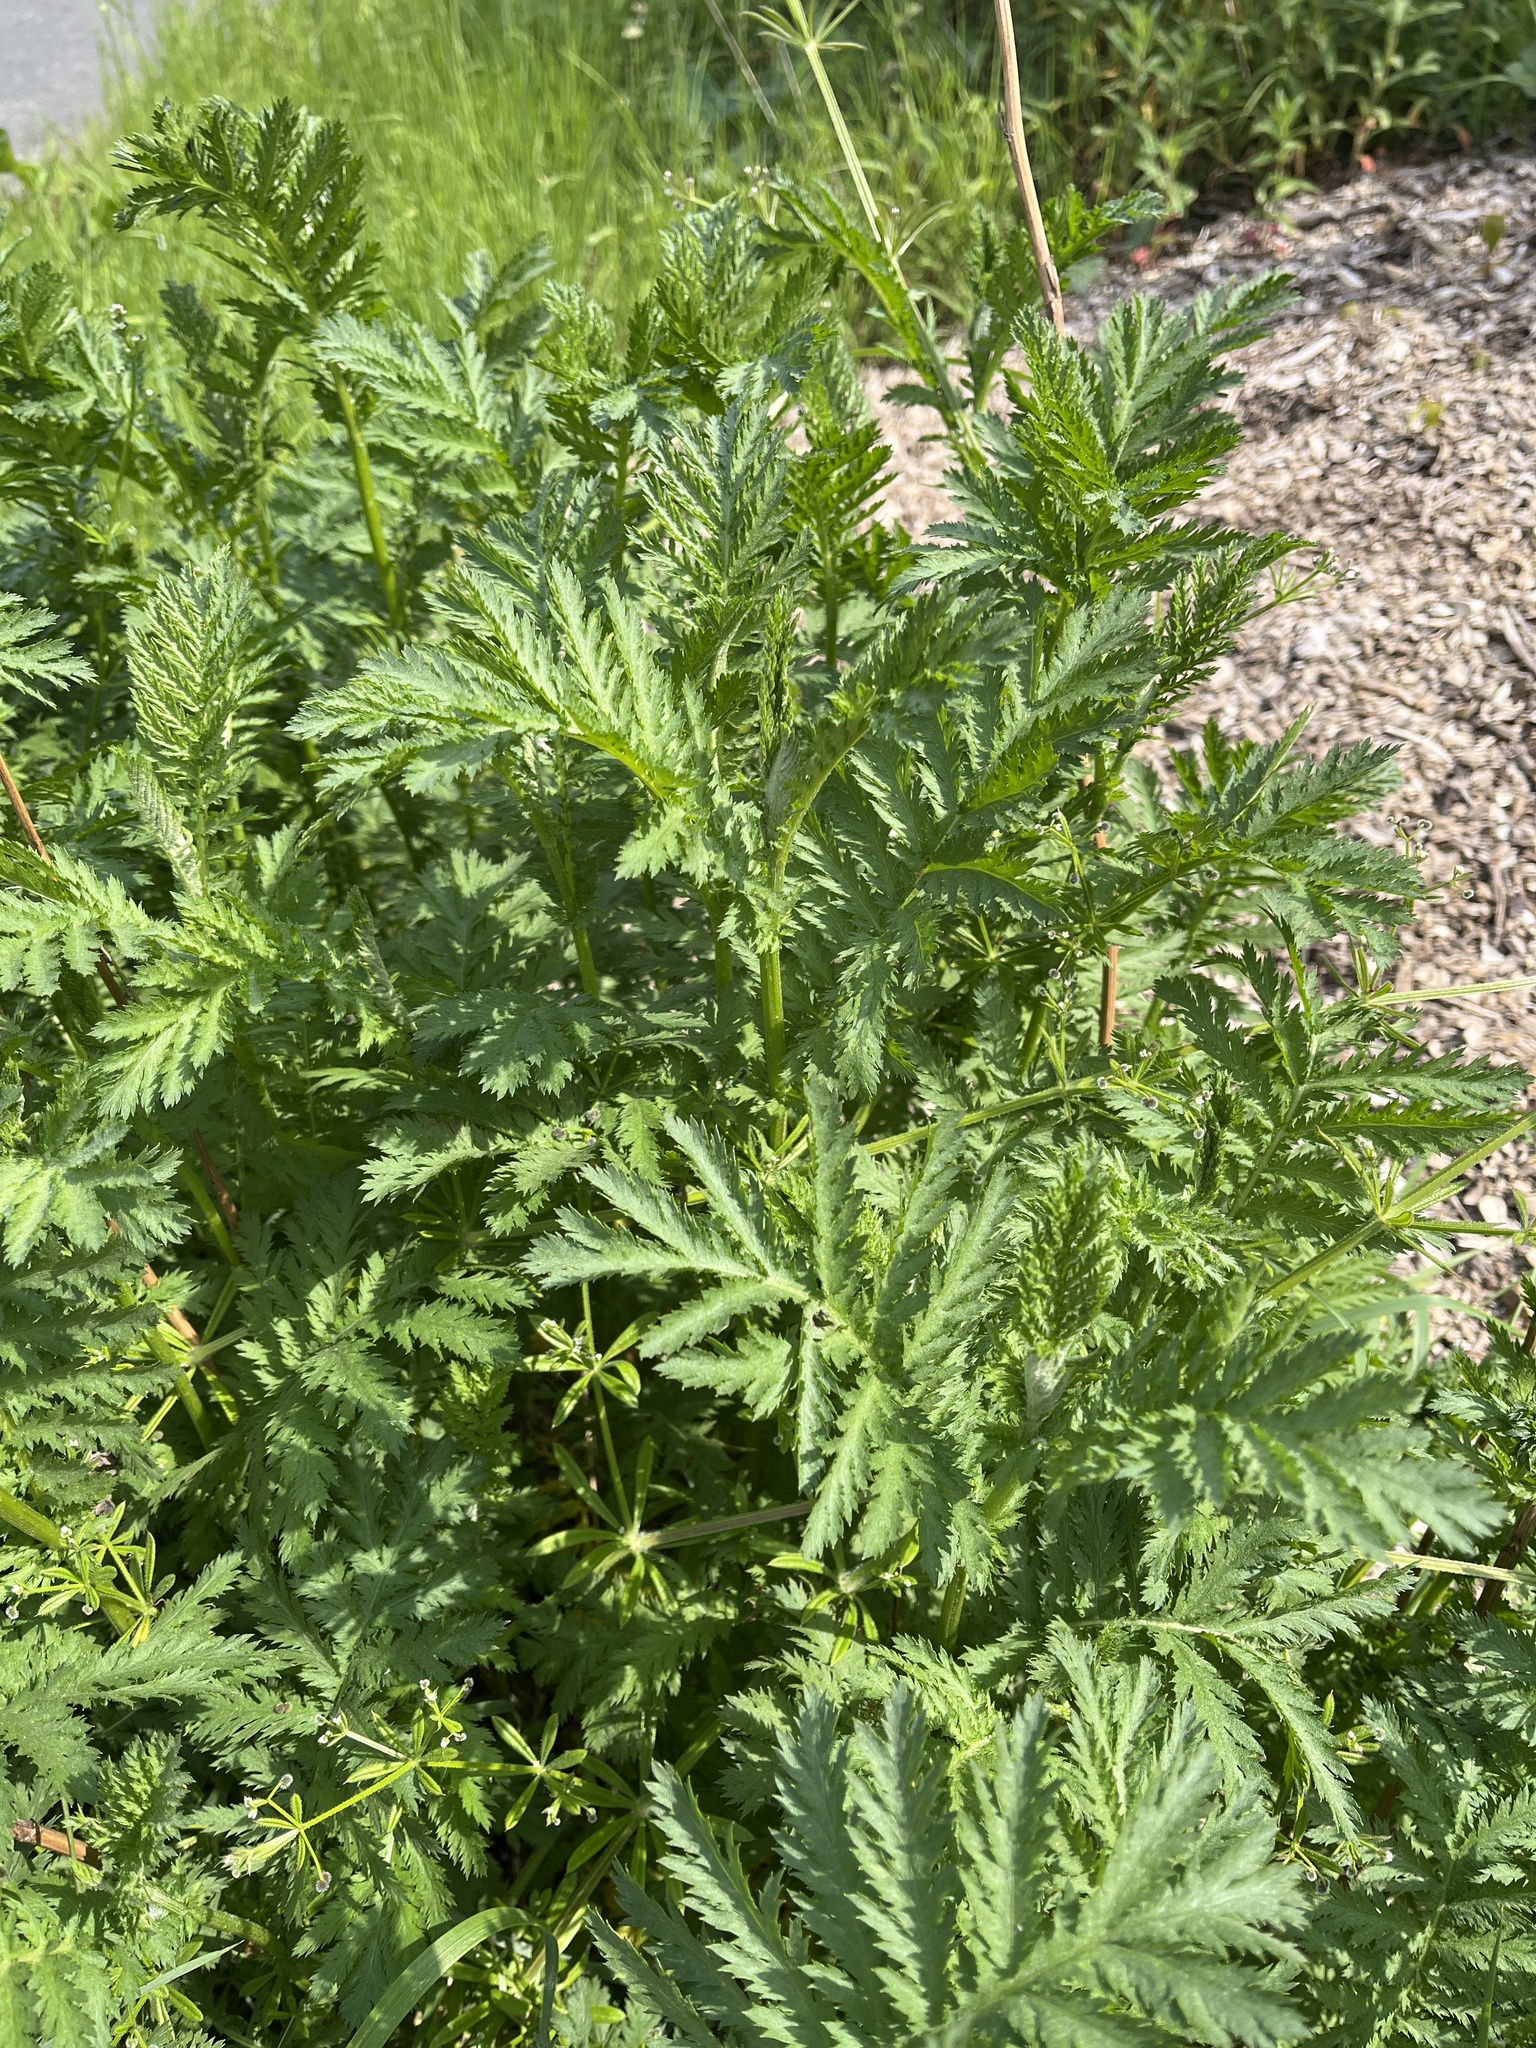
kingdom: Plantae
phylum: Tracheophyta
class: Magnoliopsida
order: Asterales
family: Asteraceae
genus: Tanacetum
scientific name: Tanacetum vulgare
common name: Common tansy
